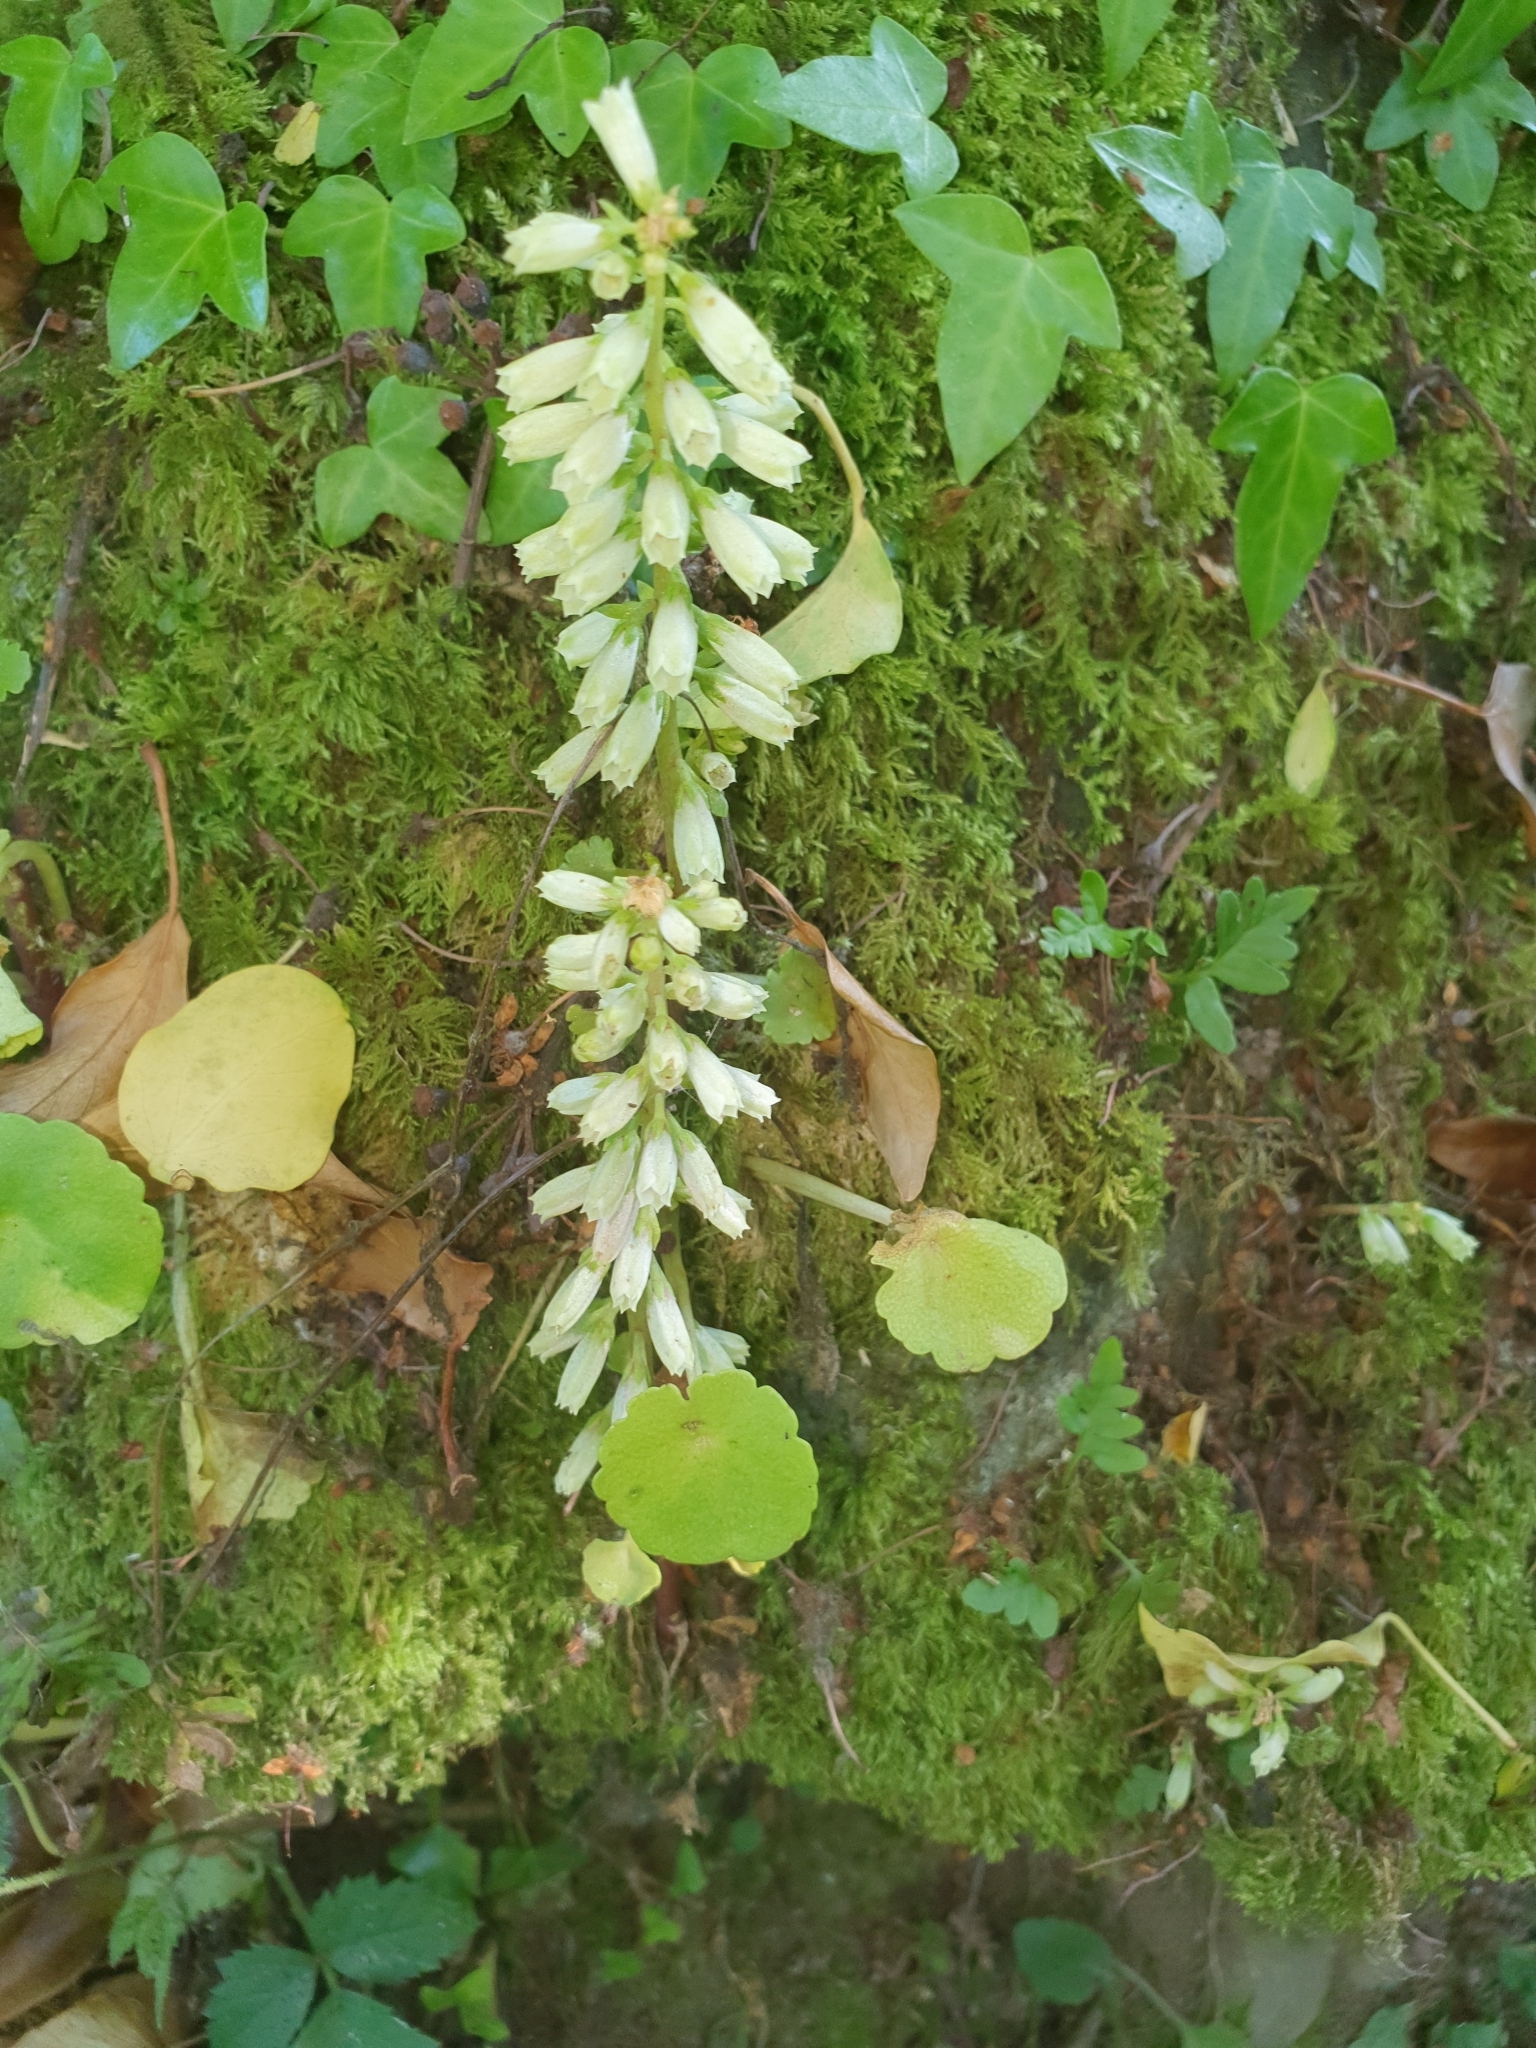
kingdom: Plantae
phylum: Tracheophyta
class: Magnoliopsida
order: Saxifragales
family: Crassulaceae
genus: Umbilicus
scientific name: Umbilicus rupestris
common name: Navelwort
